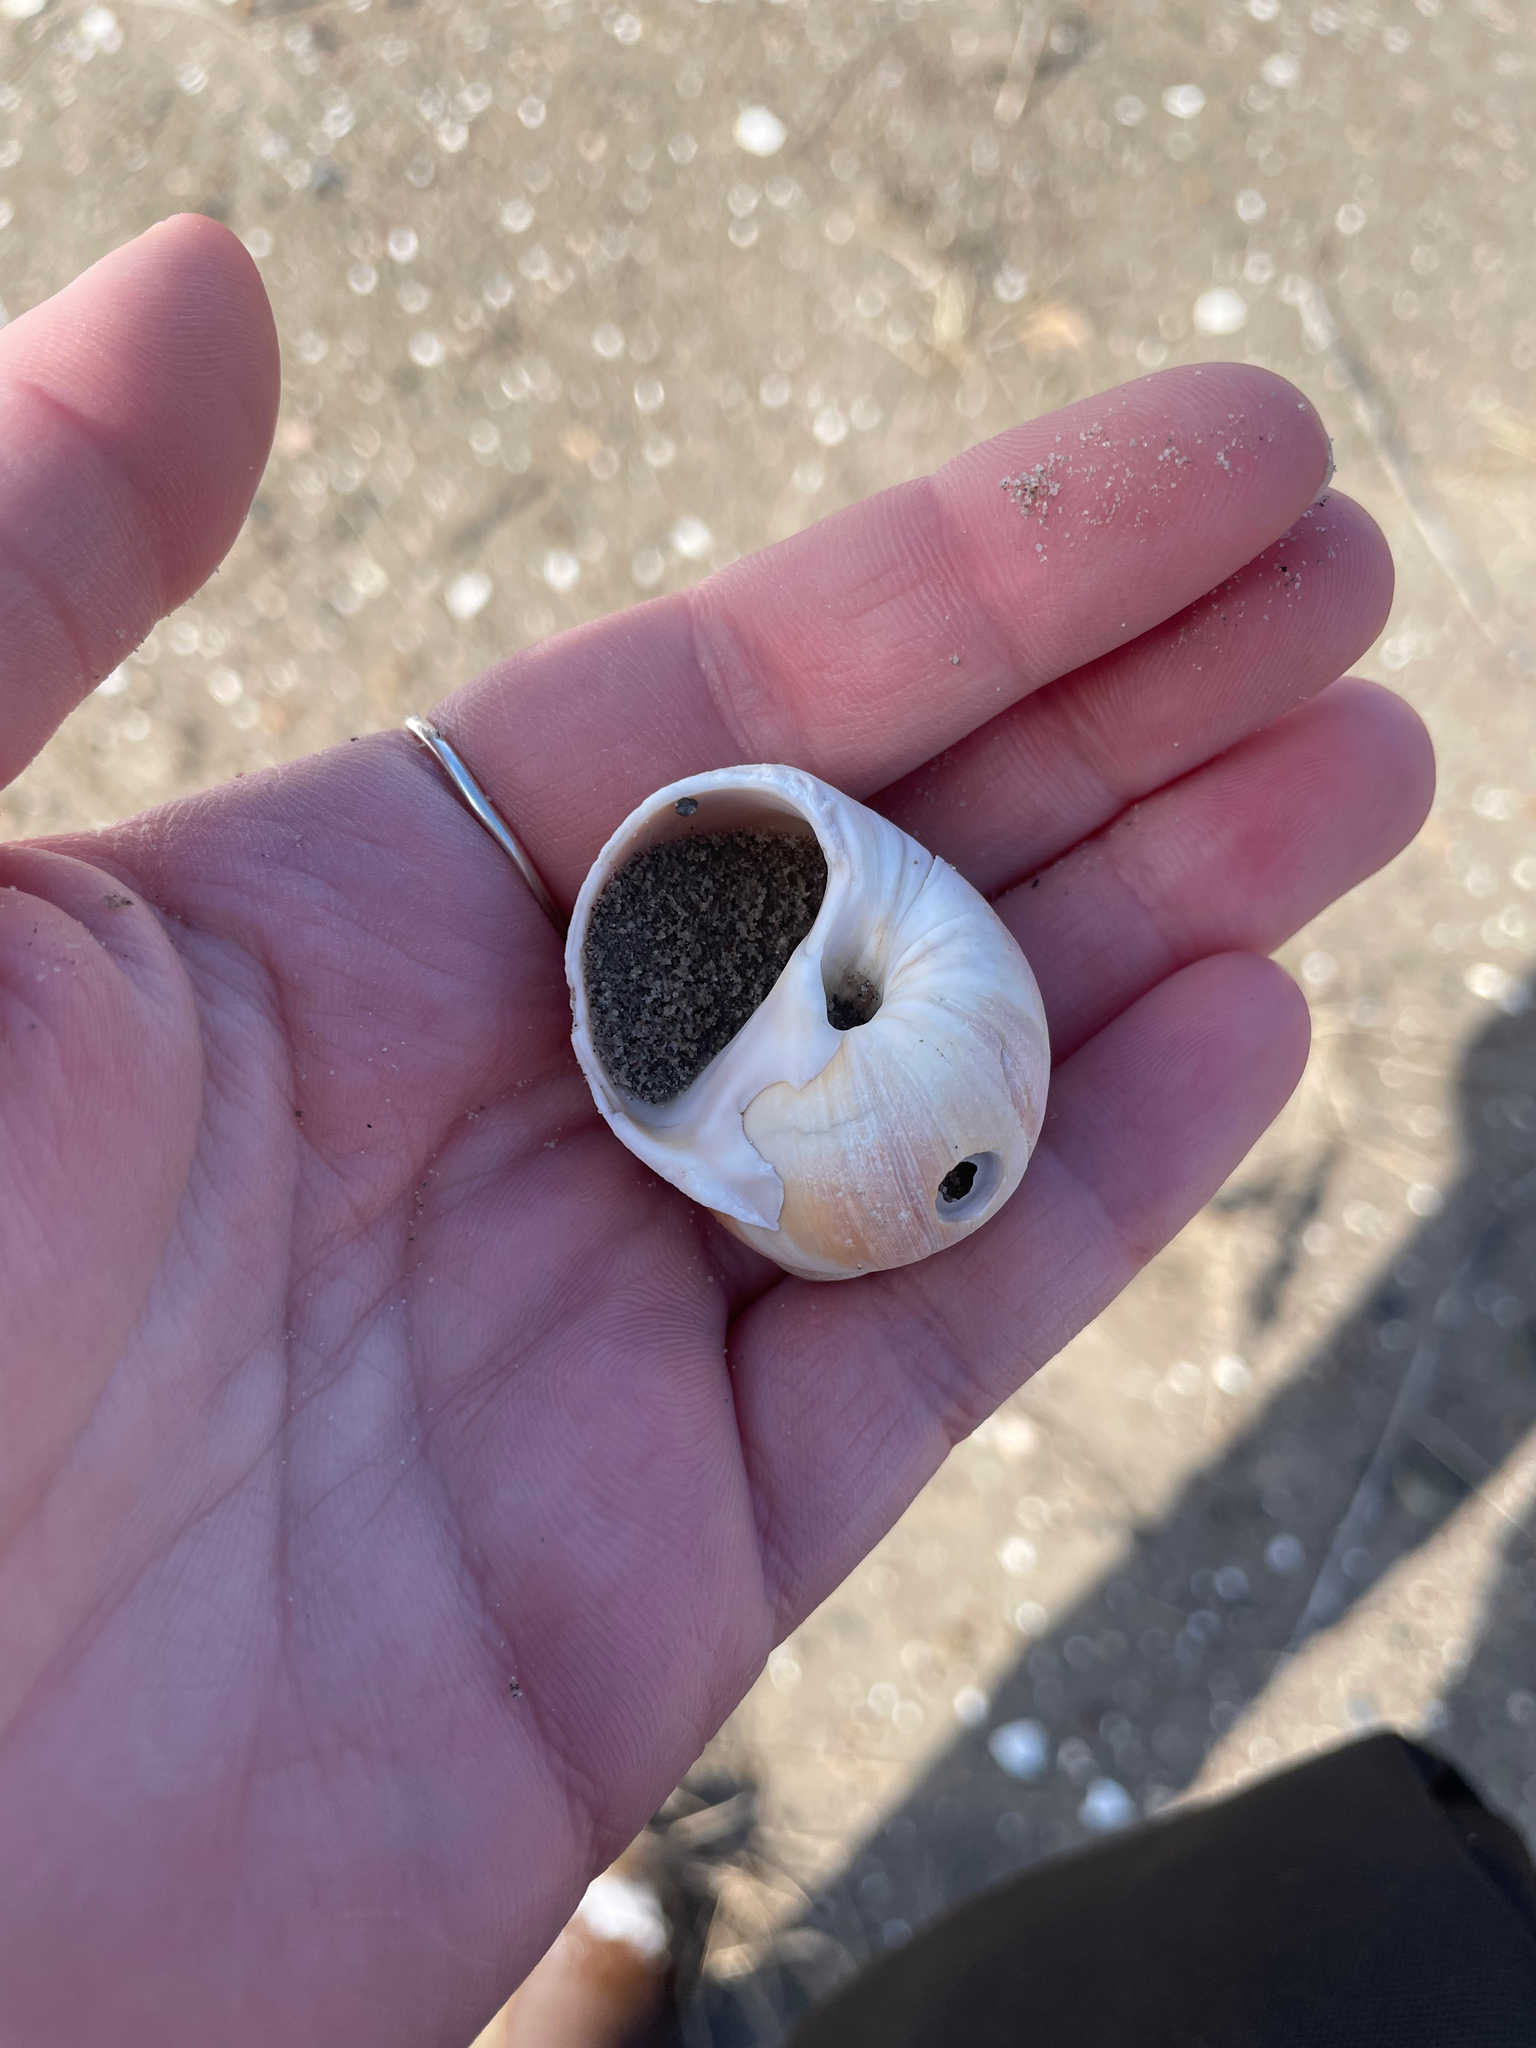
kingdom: Animalia
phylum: Mollusca
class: Gastropoda
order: Littorinimorpha
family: Naticidae
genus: Euspira
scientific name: Euspira heros
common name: Common northern moonsnail
